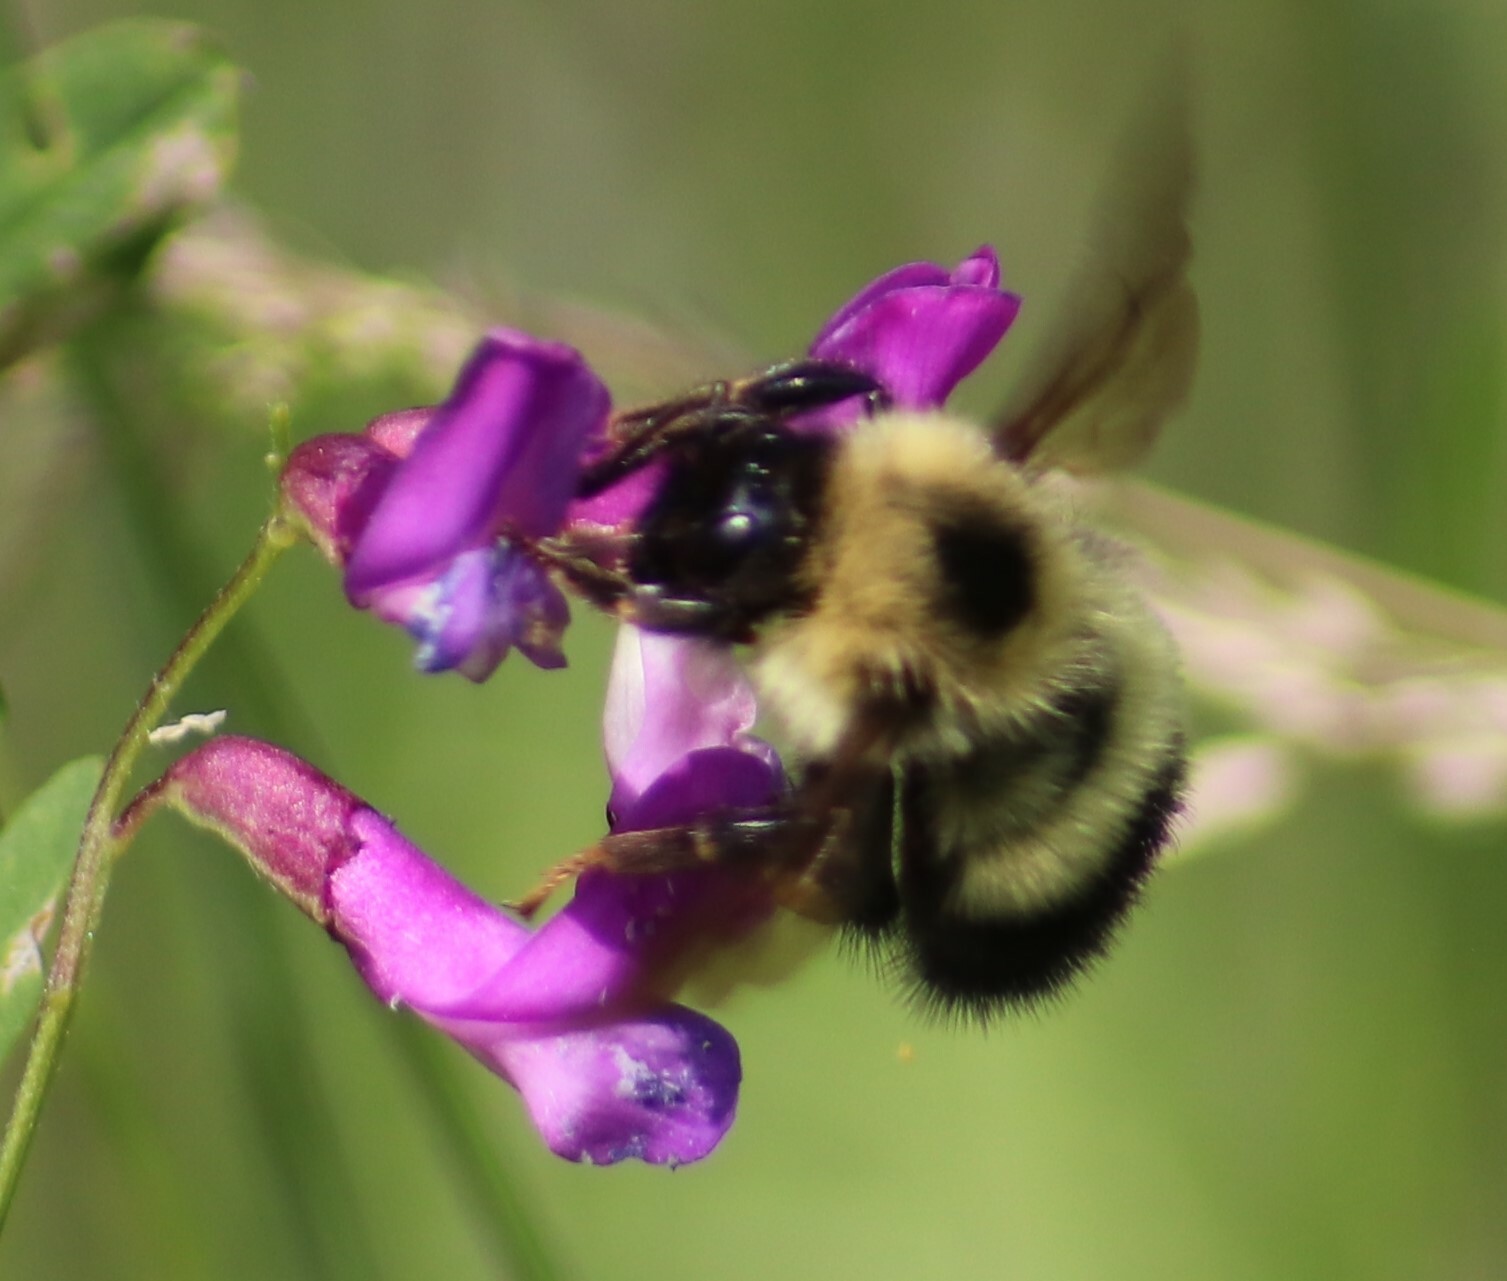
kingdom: Animalia
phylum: Arthropoda
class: Insecta
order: Hymenoptera
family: Apidae
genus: Bombus
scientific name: Bombus vagans
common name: Half-black bumble bee
